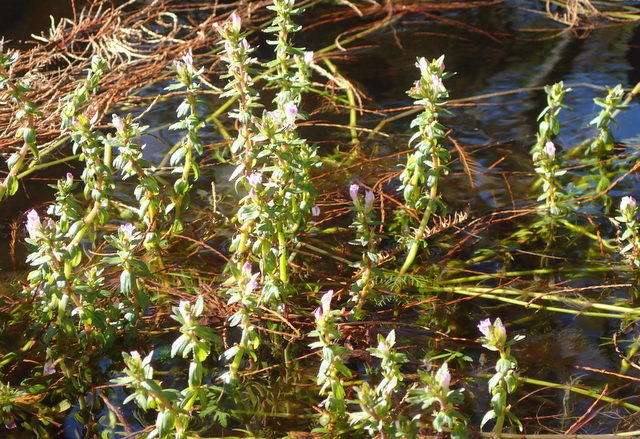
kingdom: Plantae
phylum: Tracheophyta
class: Magnoliopsida
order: Lamiales
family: Plantaginaceae
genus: Mecardonia
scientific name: Mecardonia acuminata
